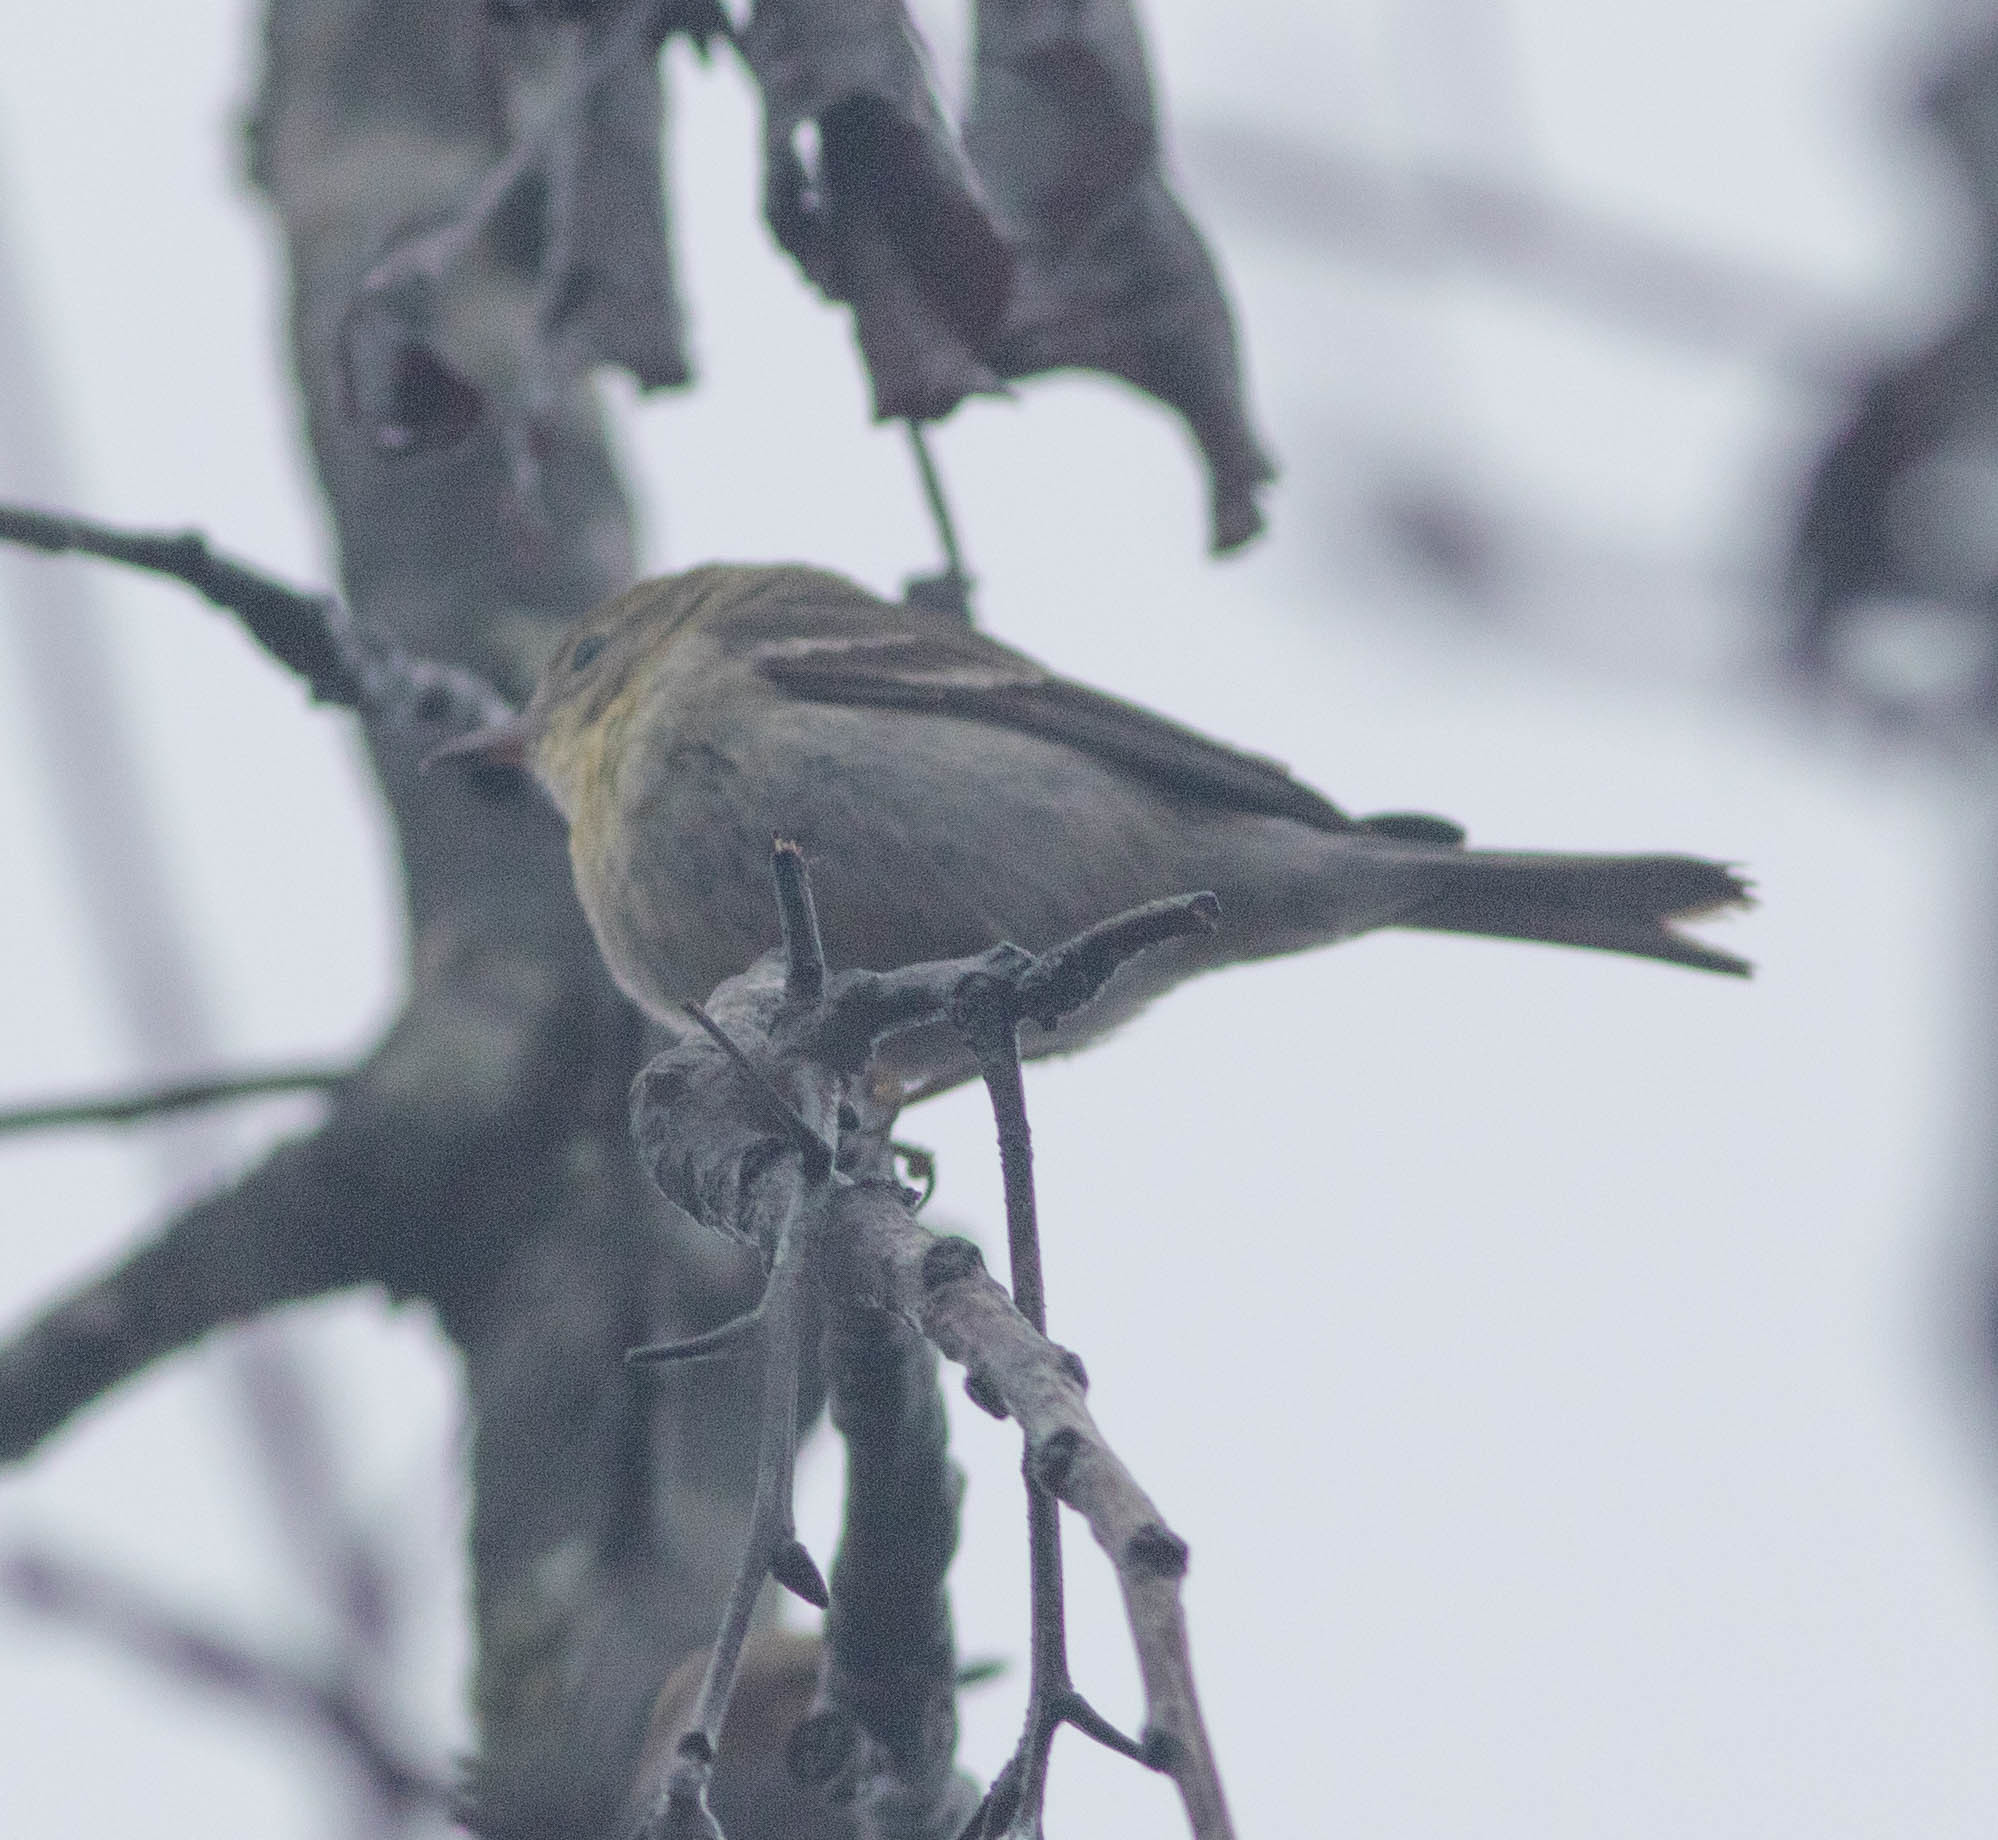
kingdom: Animalia
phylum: Chordata
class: Aves
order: Passeriformes
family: Parulidae
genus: Setophaga
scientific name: Setophaga pinus
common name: Pine warbler
